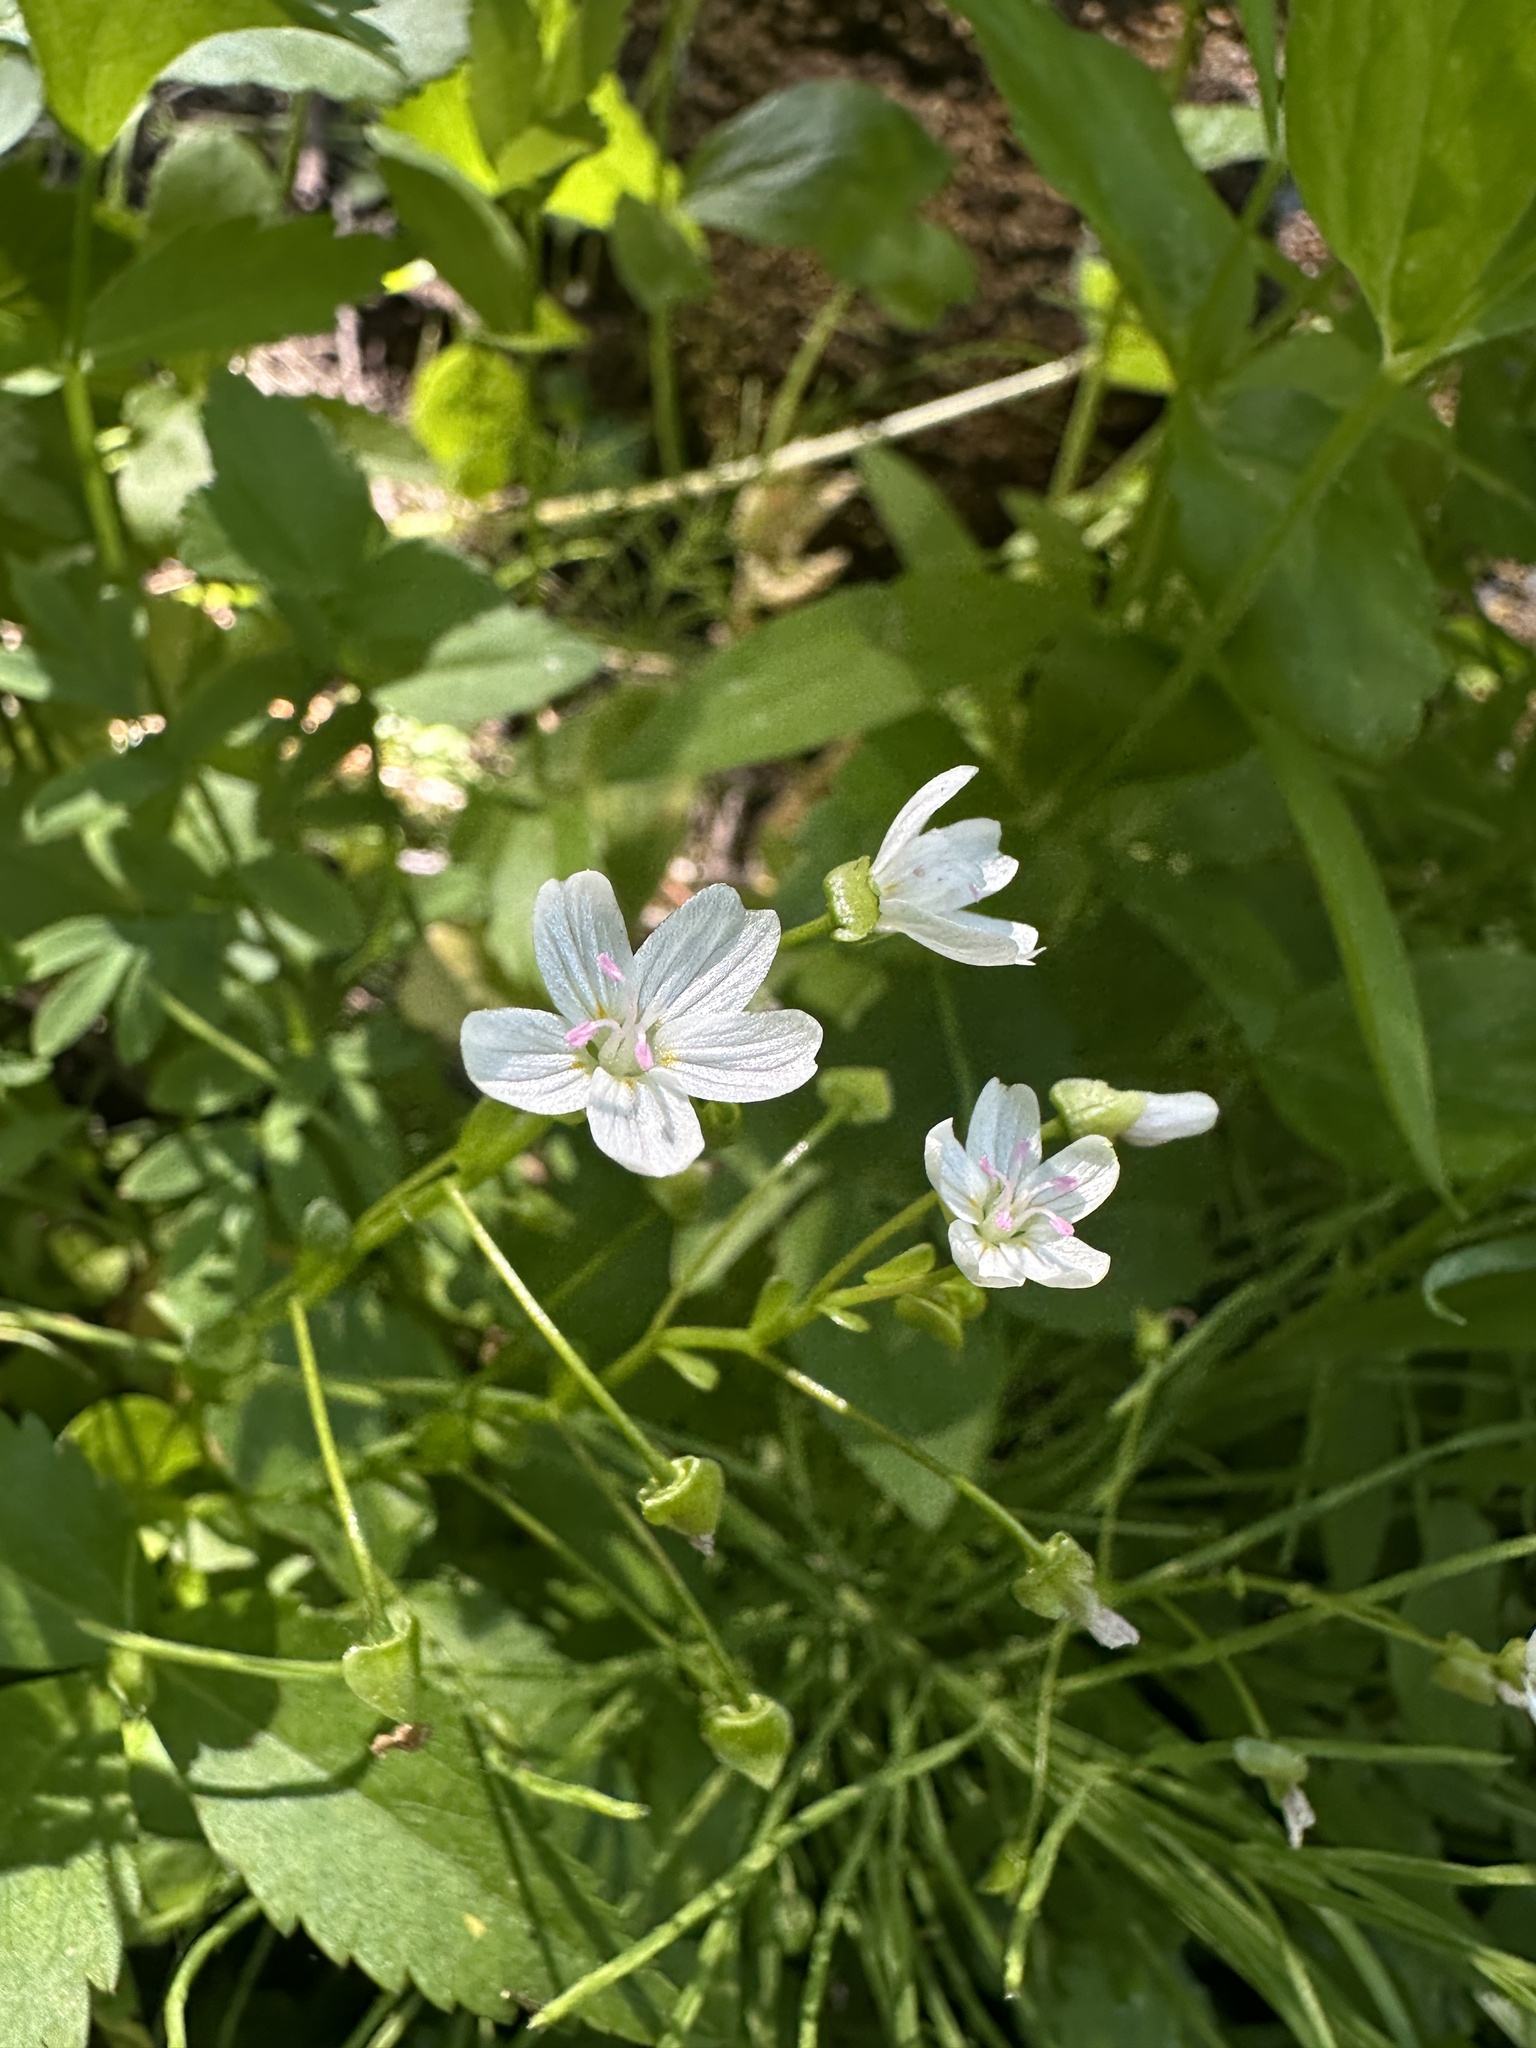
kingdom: Plantae
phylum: Tracheophyta
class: Magnoliopsida
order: Caryophyllales
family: Montiaceae
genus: Claytonia
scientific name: Claytonia palustris
